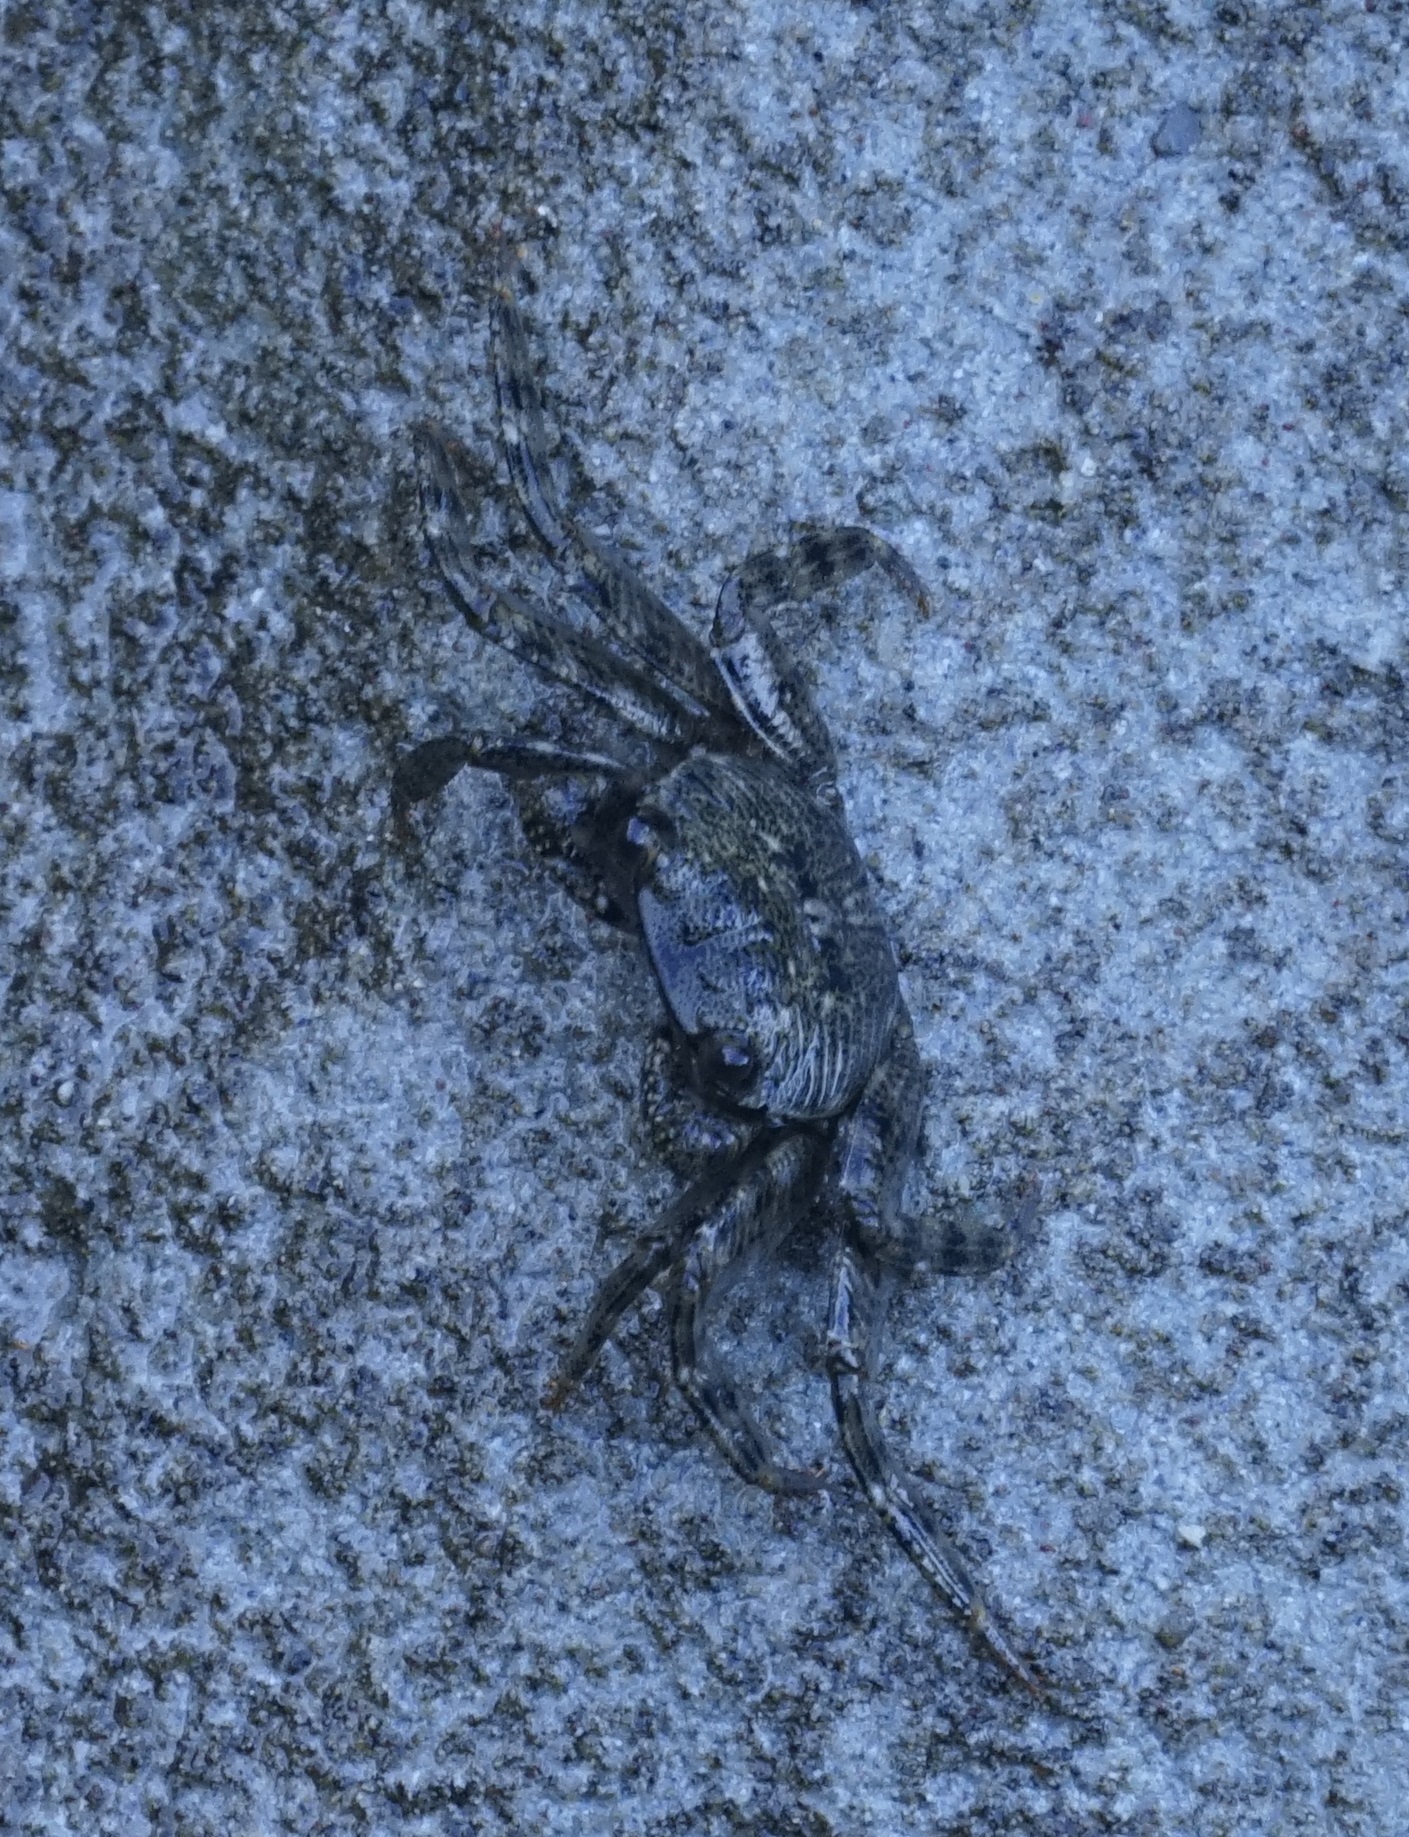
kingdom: Animalia
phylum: Arthropoda
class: Malacostraca
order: Decapoda
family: Grapsidae
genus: Leptograpsus
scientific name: Leptograpsus variegatus
